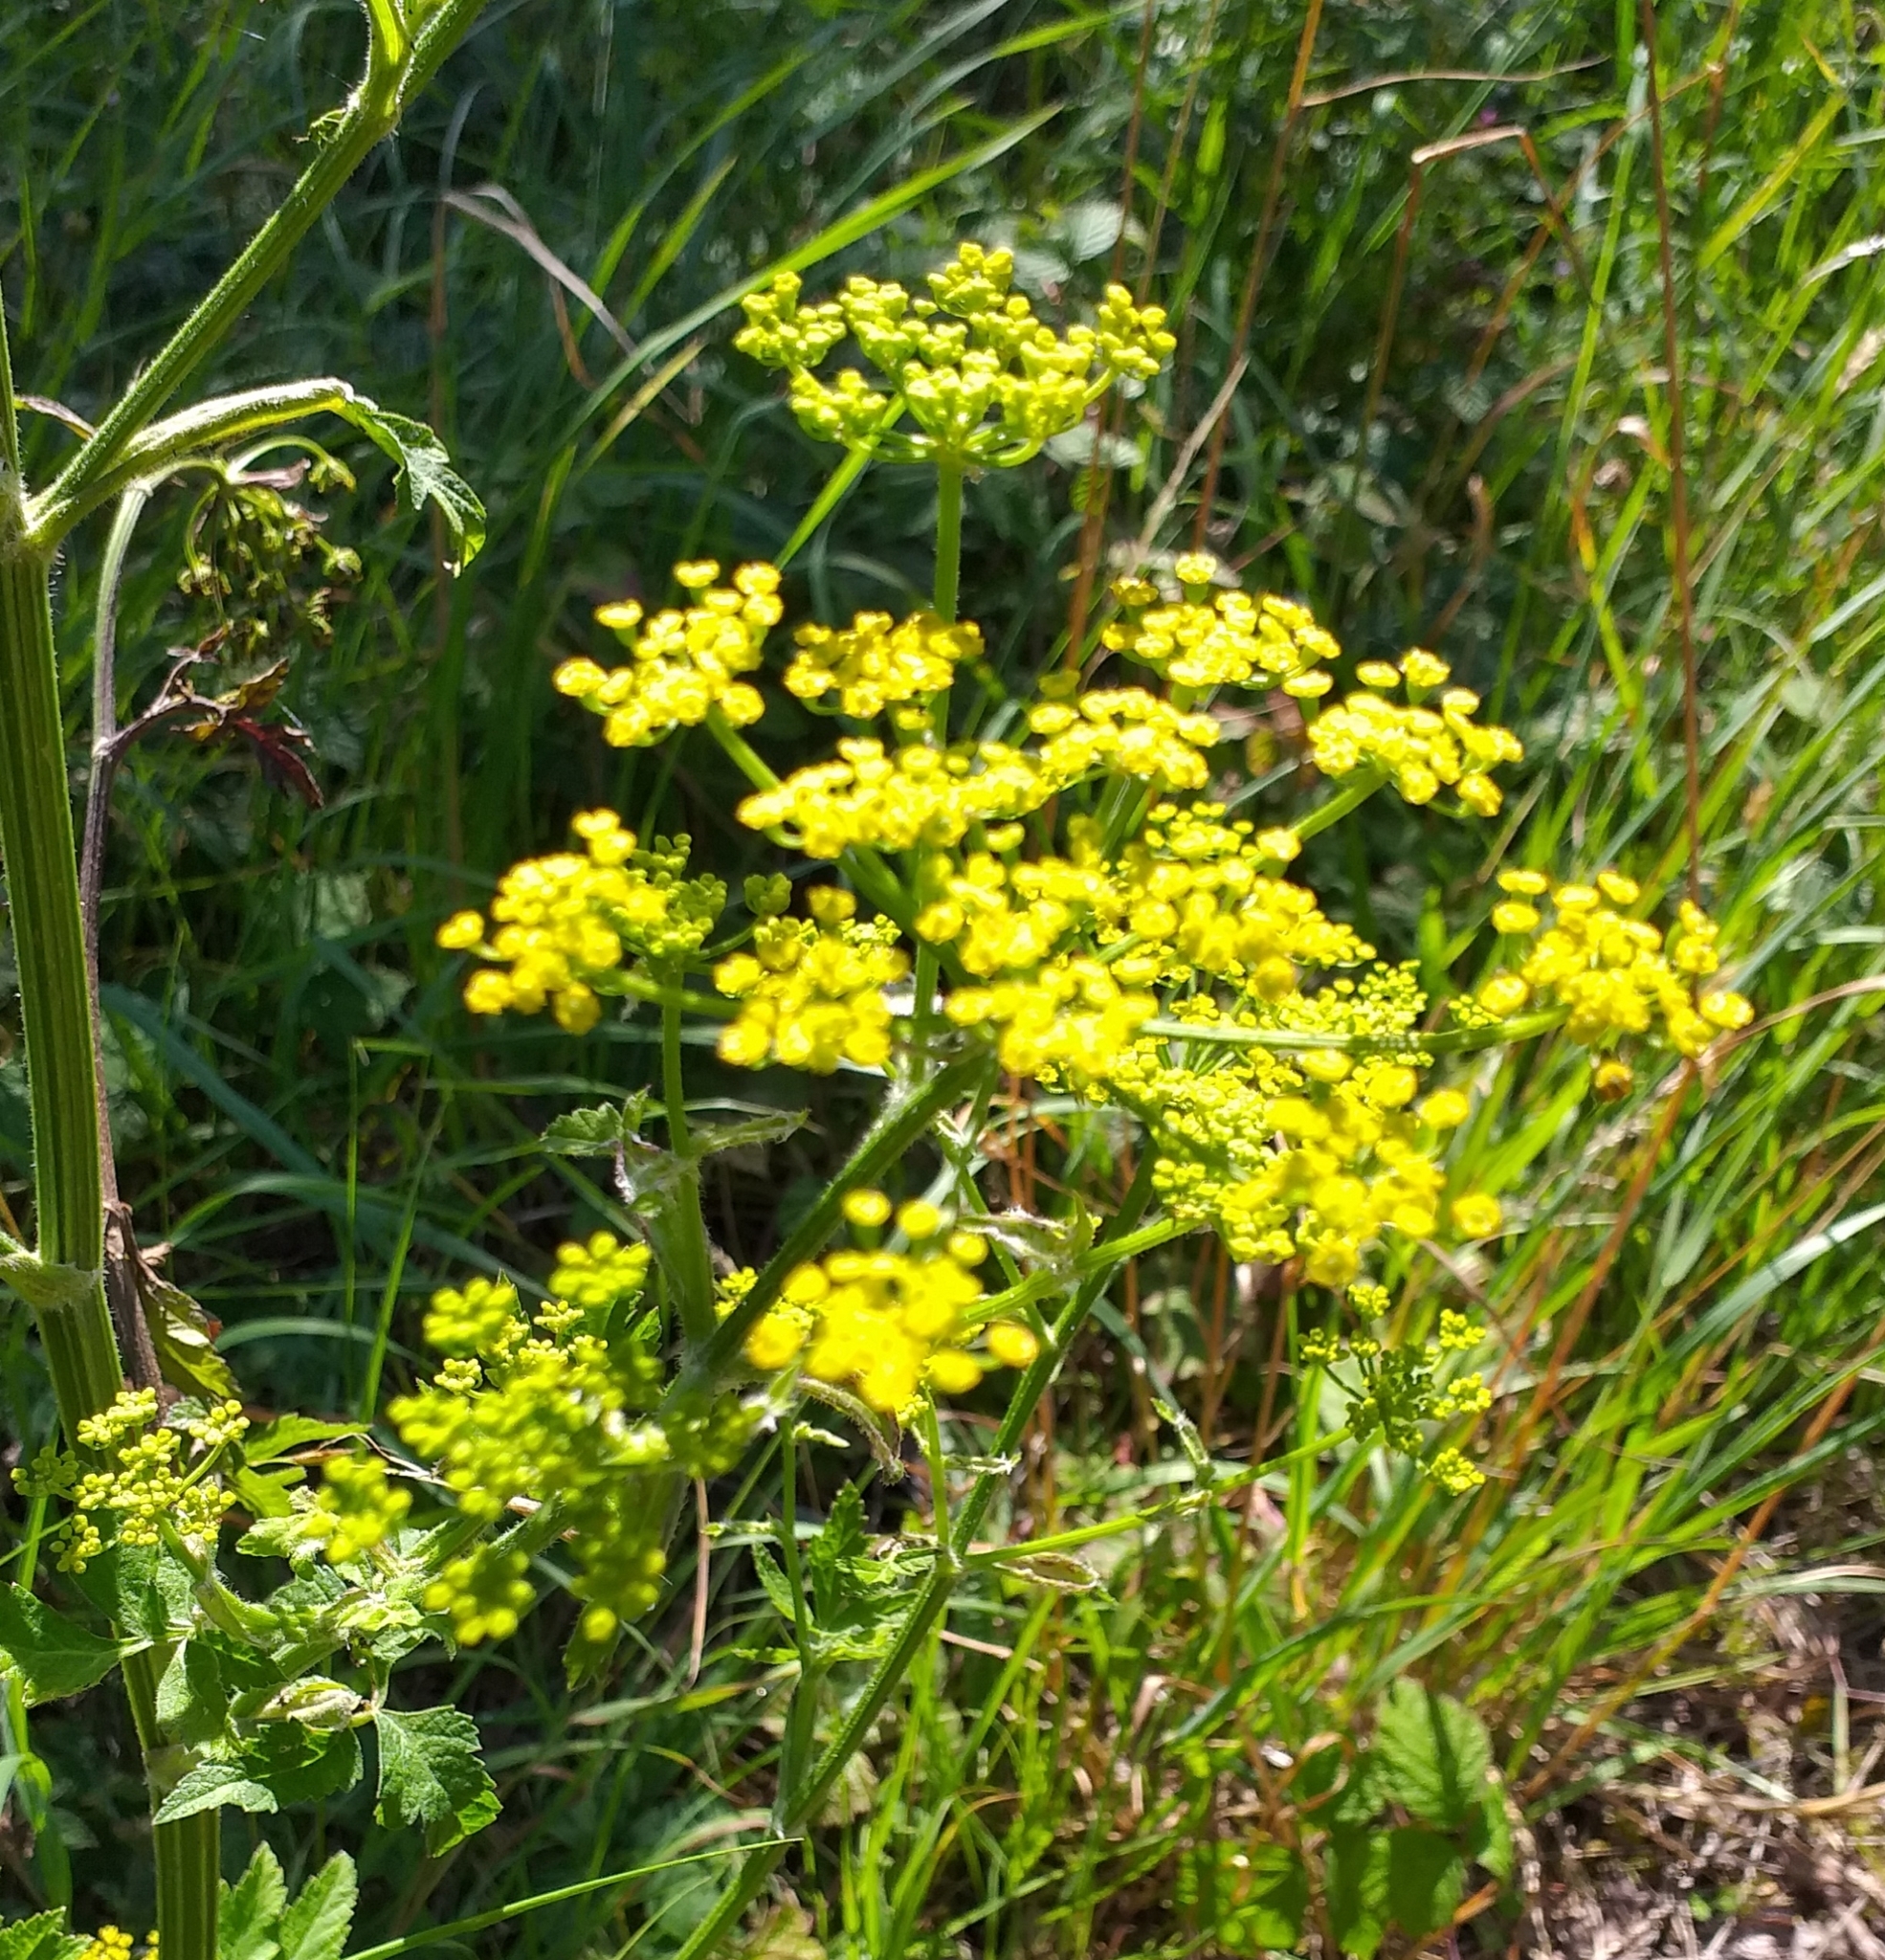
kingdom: Plantae
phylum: Tracheophyta
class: Magnoliopsida
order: Apiales
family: Apiaceae
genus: Pastinaca
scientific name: Pastinaca sativa
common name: Wild parsnip
